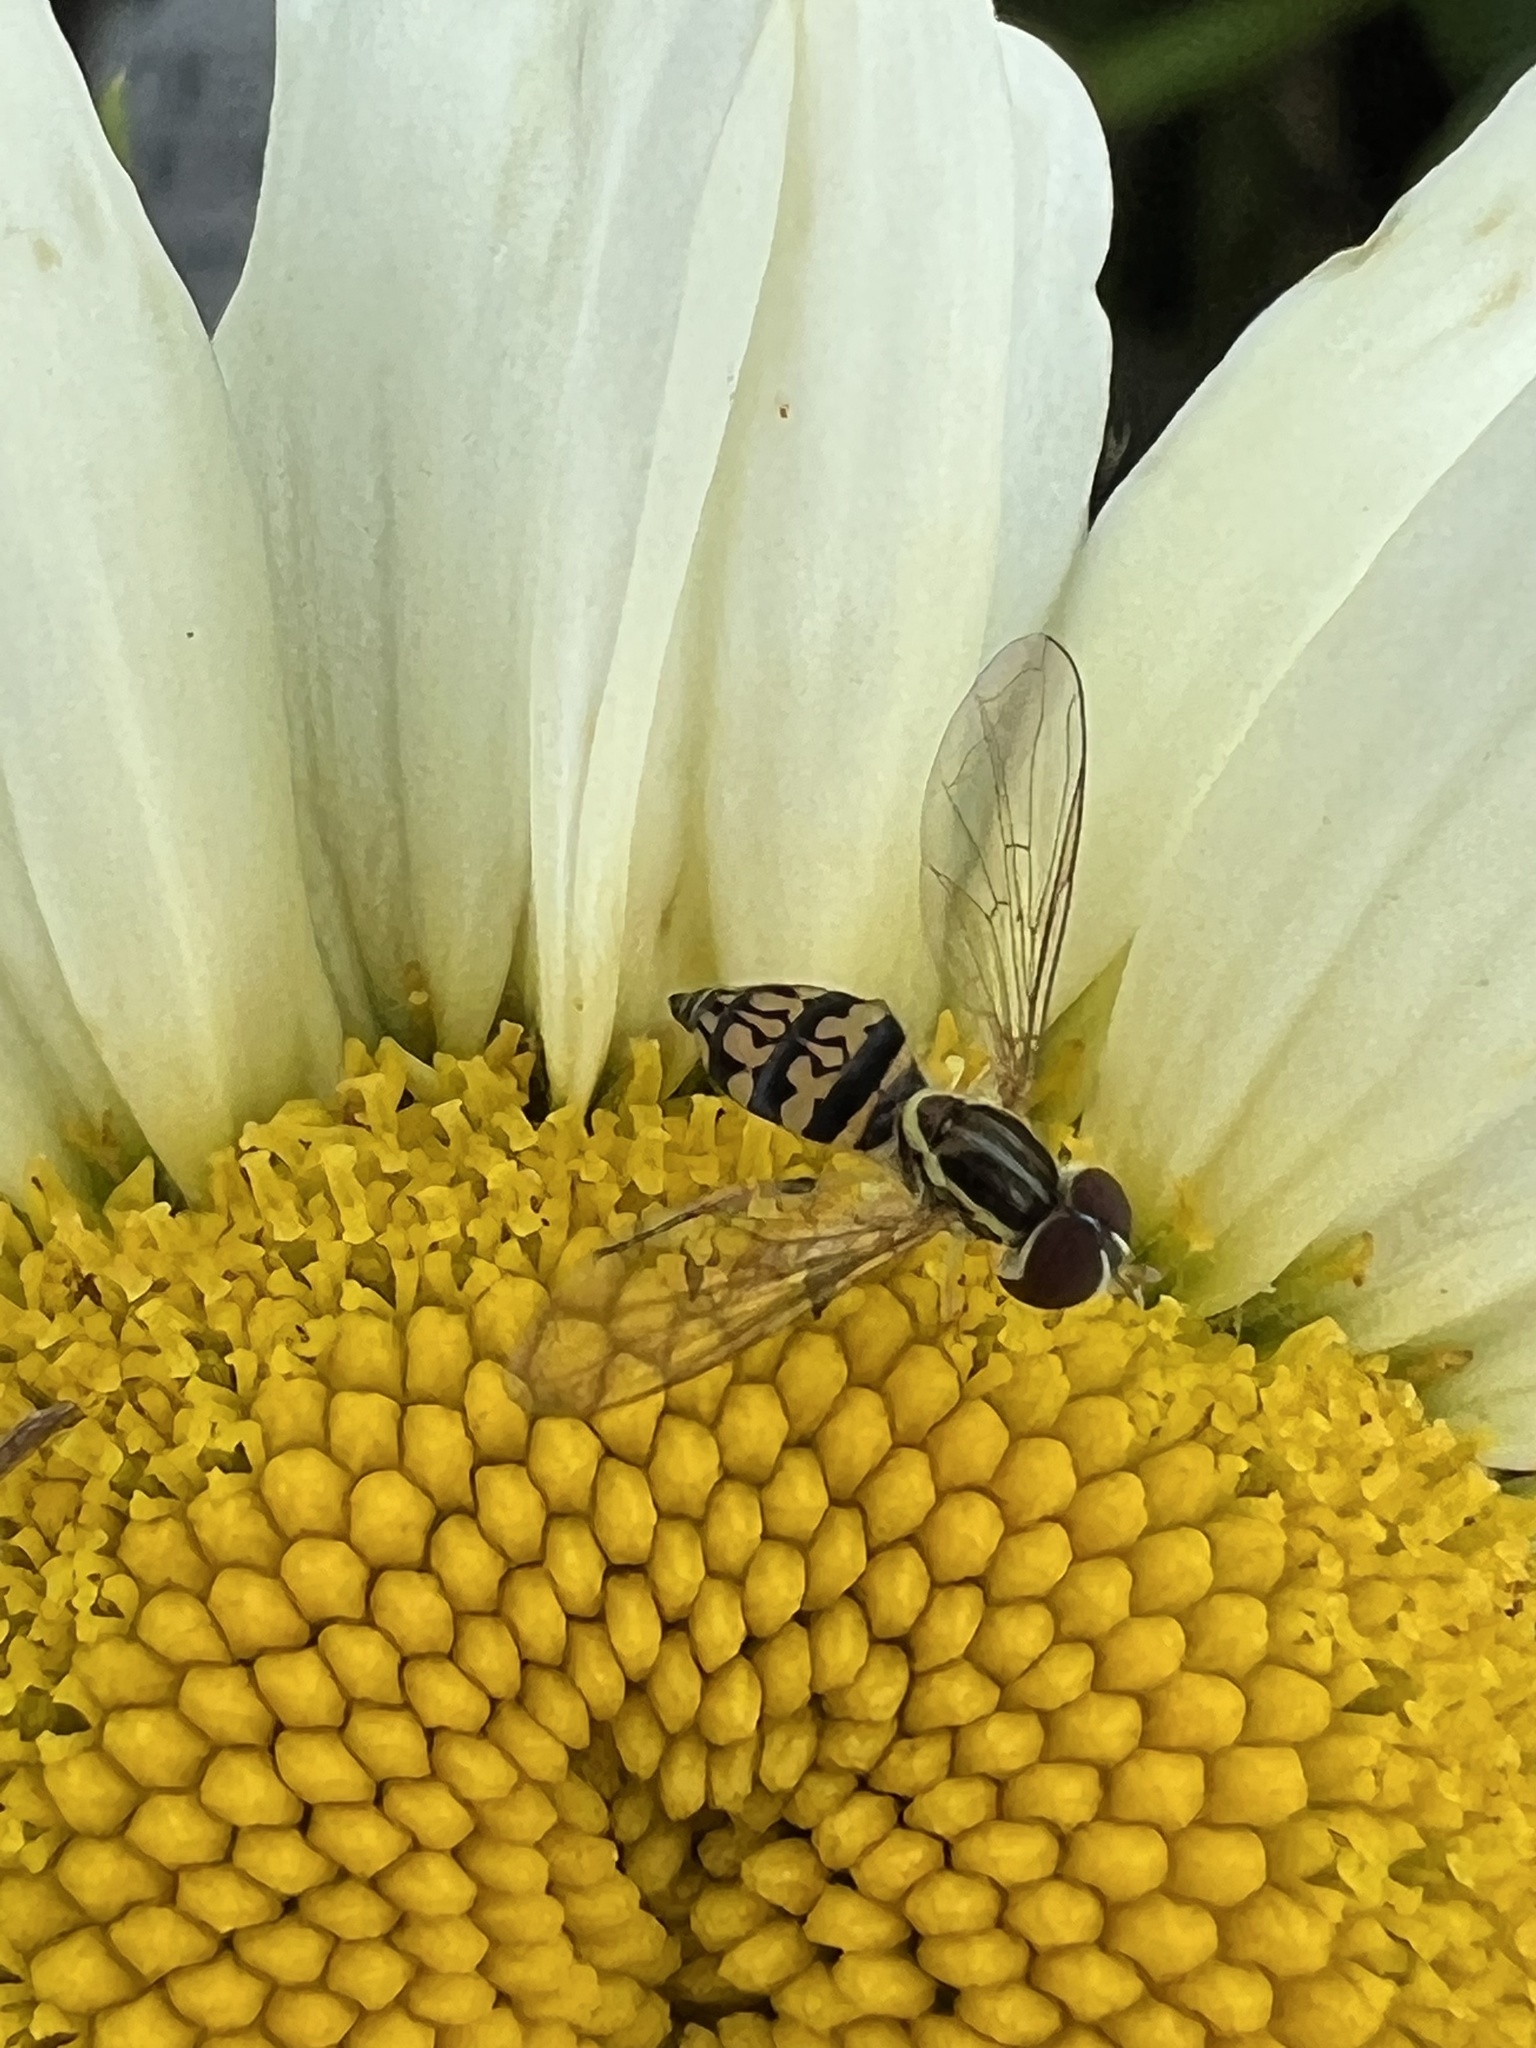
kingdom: Animalia
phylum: Arthropoda
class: Insecta
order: Diptera
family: Syrphidae
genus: Toxomerus
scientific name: Toxomerus geminatus
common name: Eastern calligrapher
